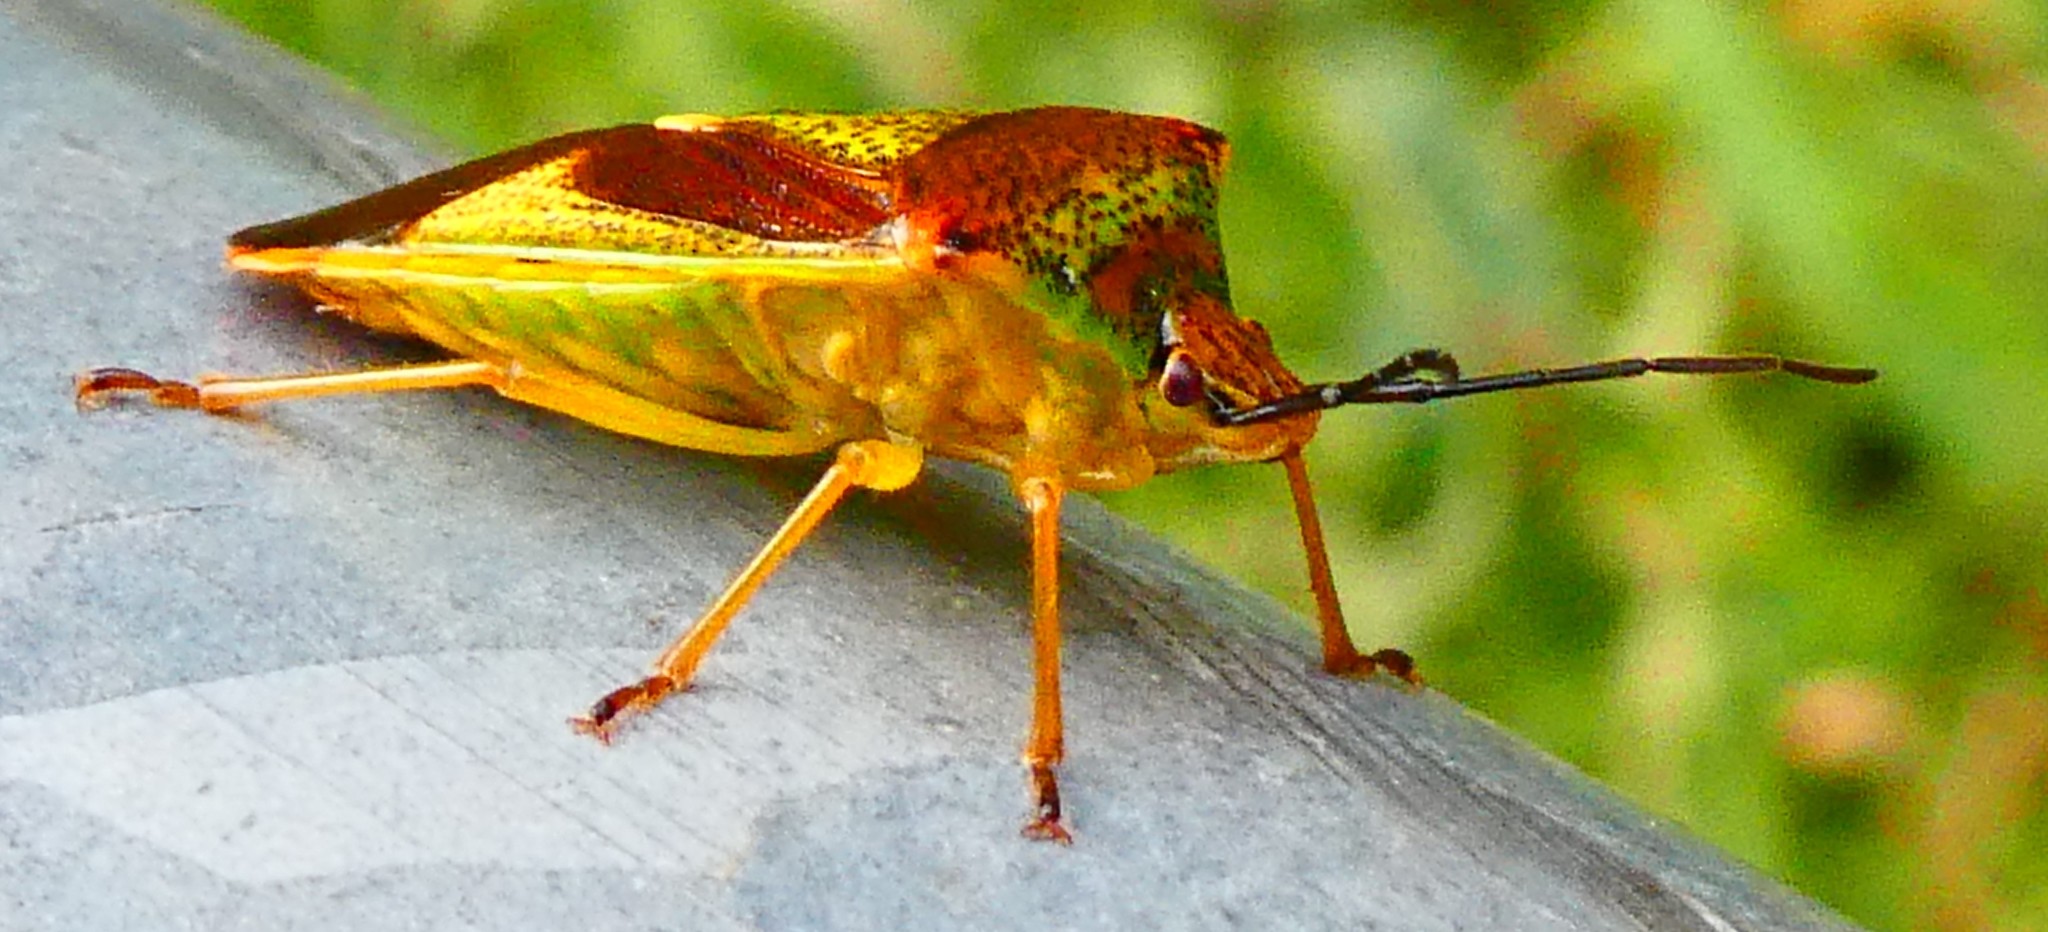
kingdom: Animalia
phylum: Arthropoda
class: Insecta
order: Hemiptera
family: Acanthosomatidae
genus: Acanthosoma
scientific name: Acanthosoma haemorrhoidale
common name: Hawthorn shieldbug
